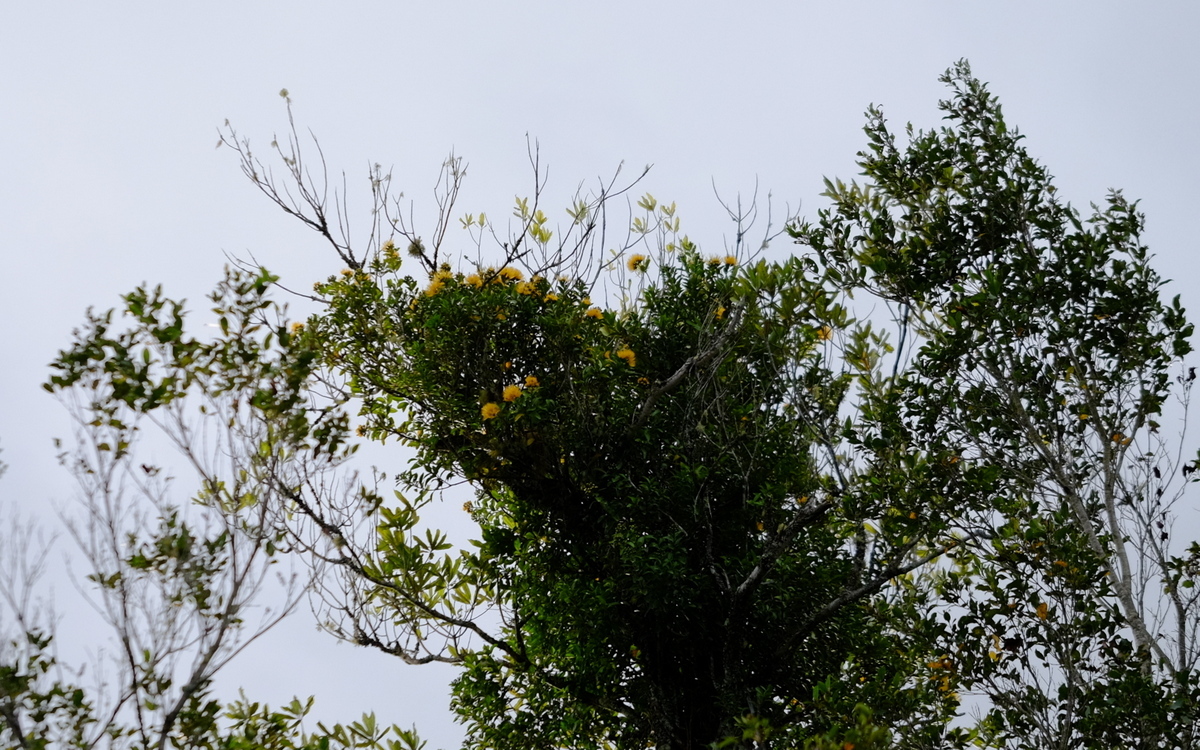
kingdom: Plantae
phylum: Tracheophyta
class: Magnoliopsida
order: Myrtales
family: Myrtaceae
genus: Metrosideros
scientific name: Metrosideros fulgens
